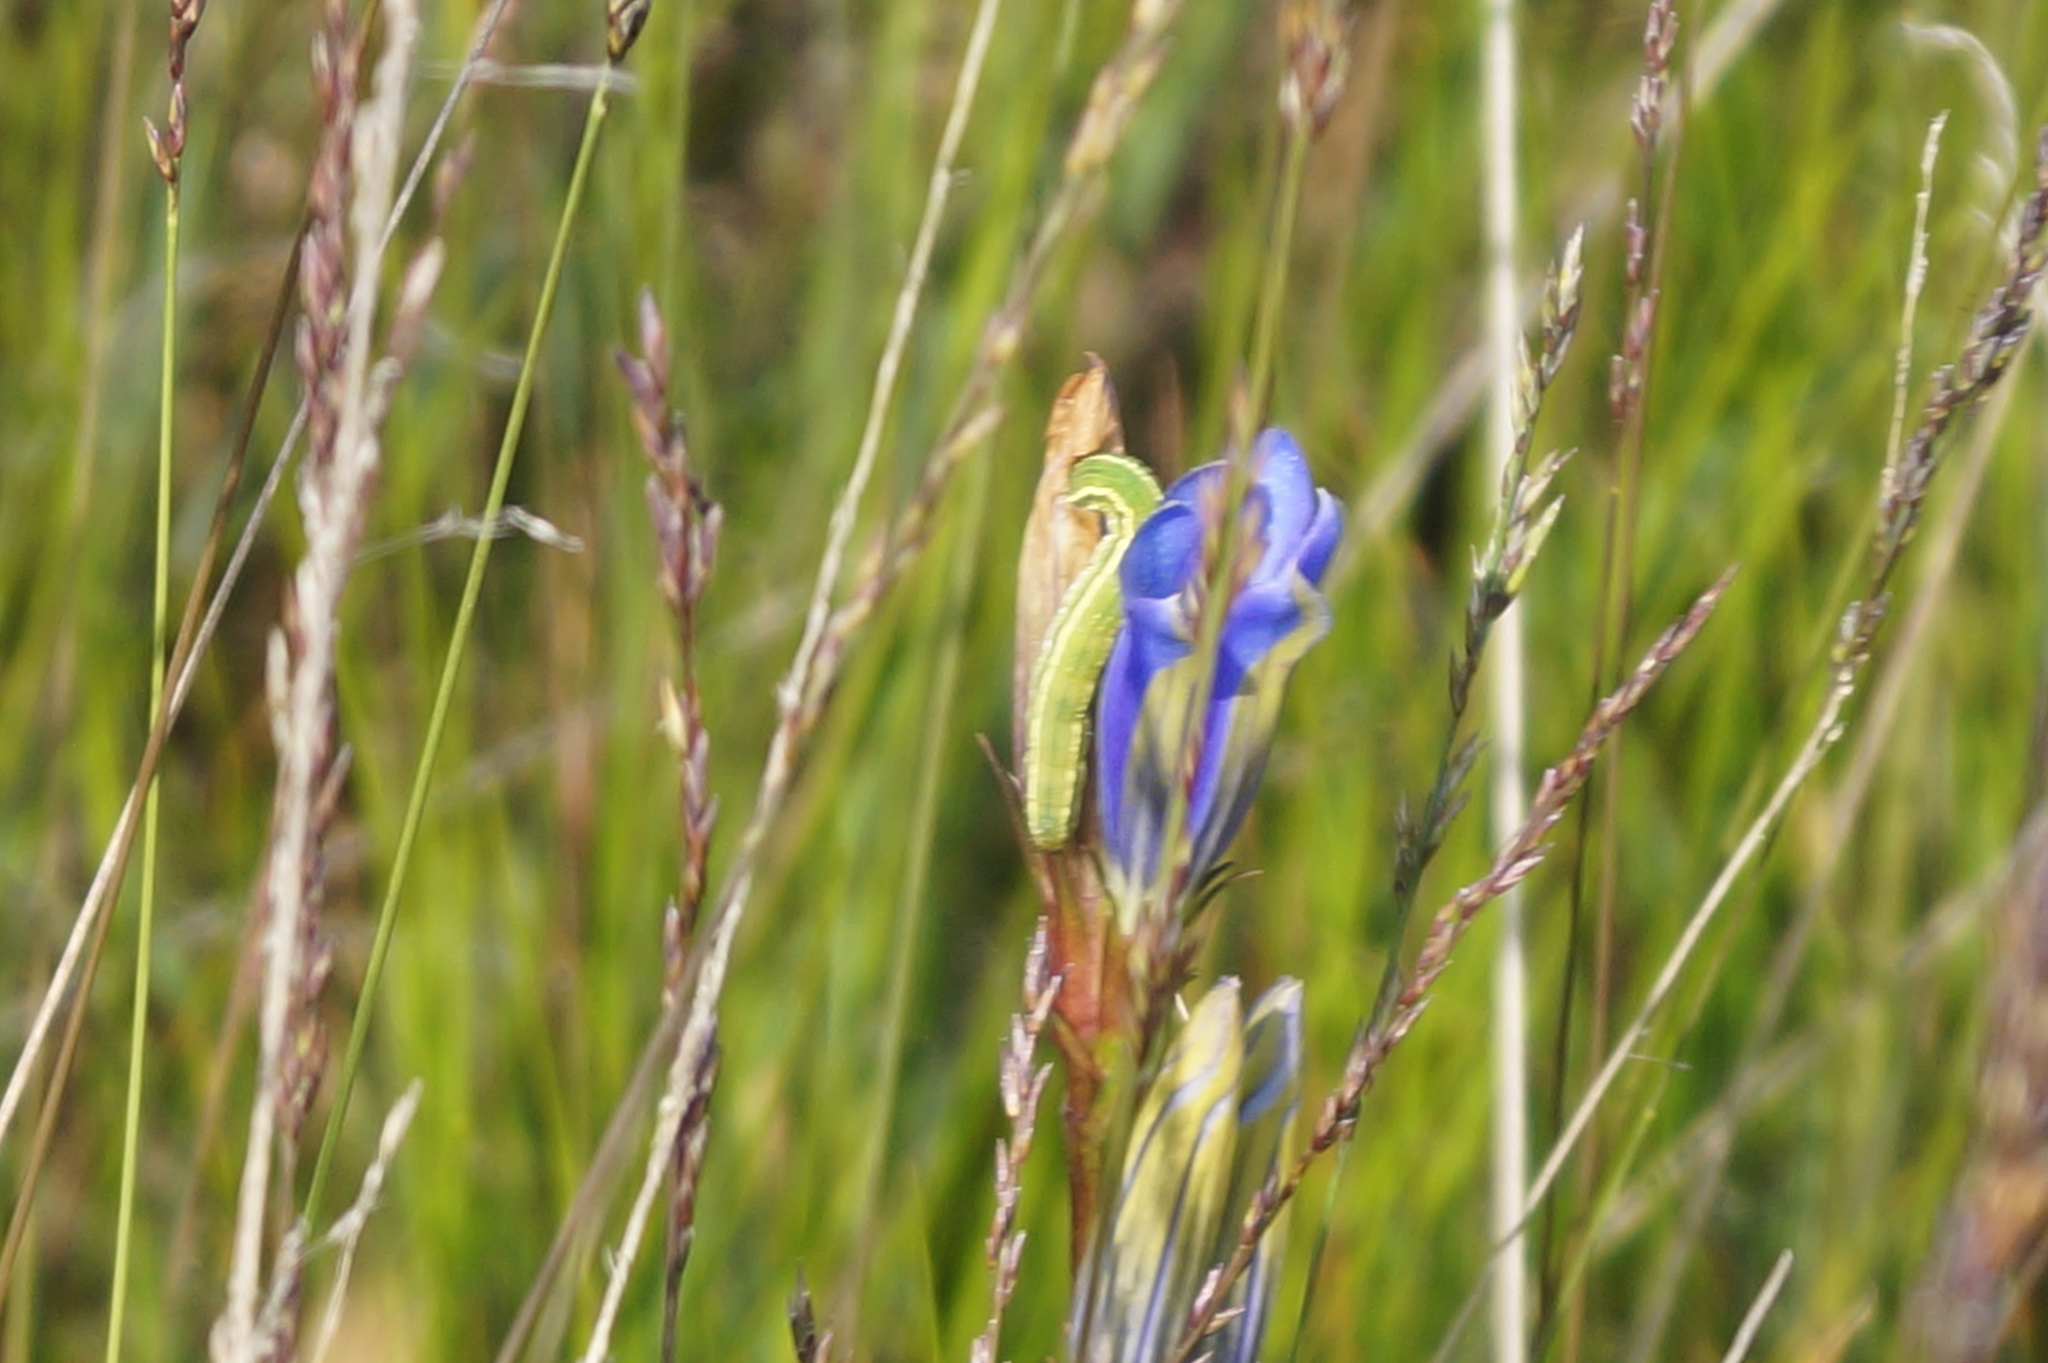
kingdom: Plantae
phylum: Tracheophyta
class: Magnoliopsida
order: Gentianales
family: Gentianaceae
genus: Gentiana
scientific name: Gentiana pneumonanthe
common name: Marsh gentian
